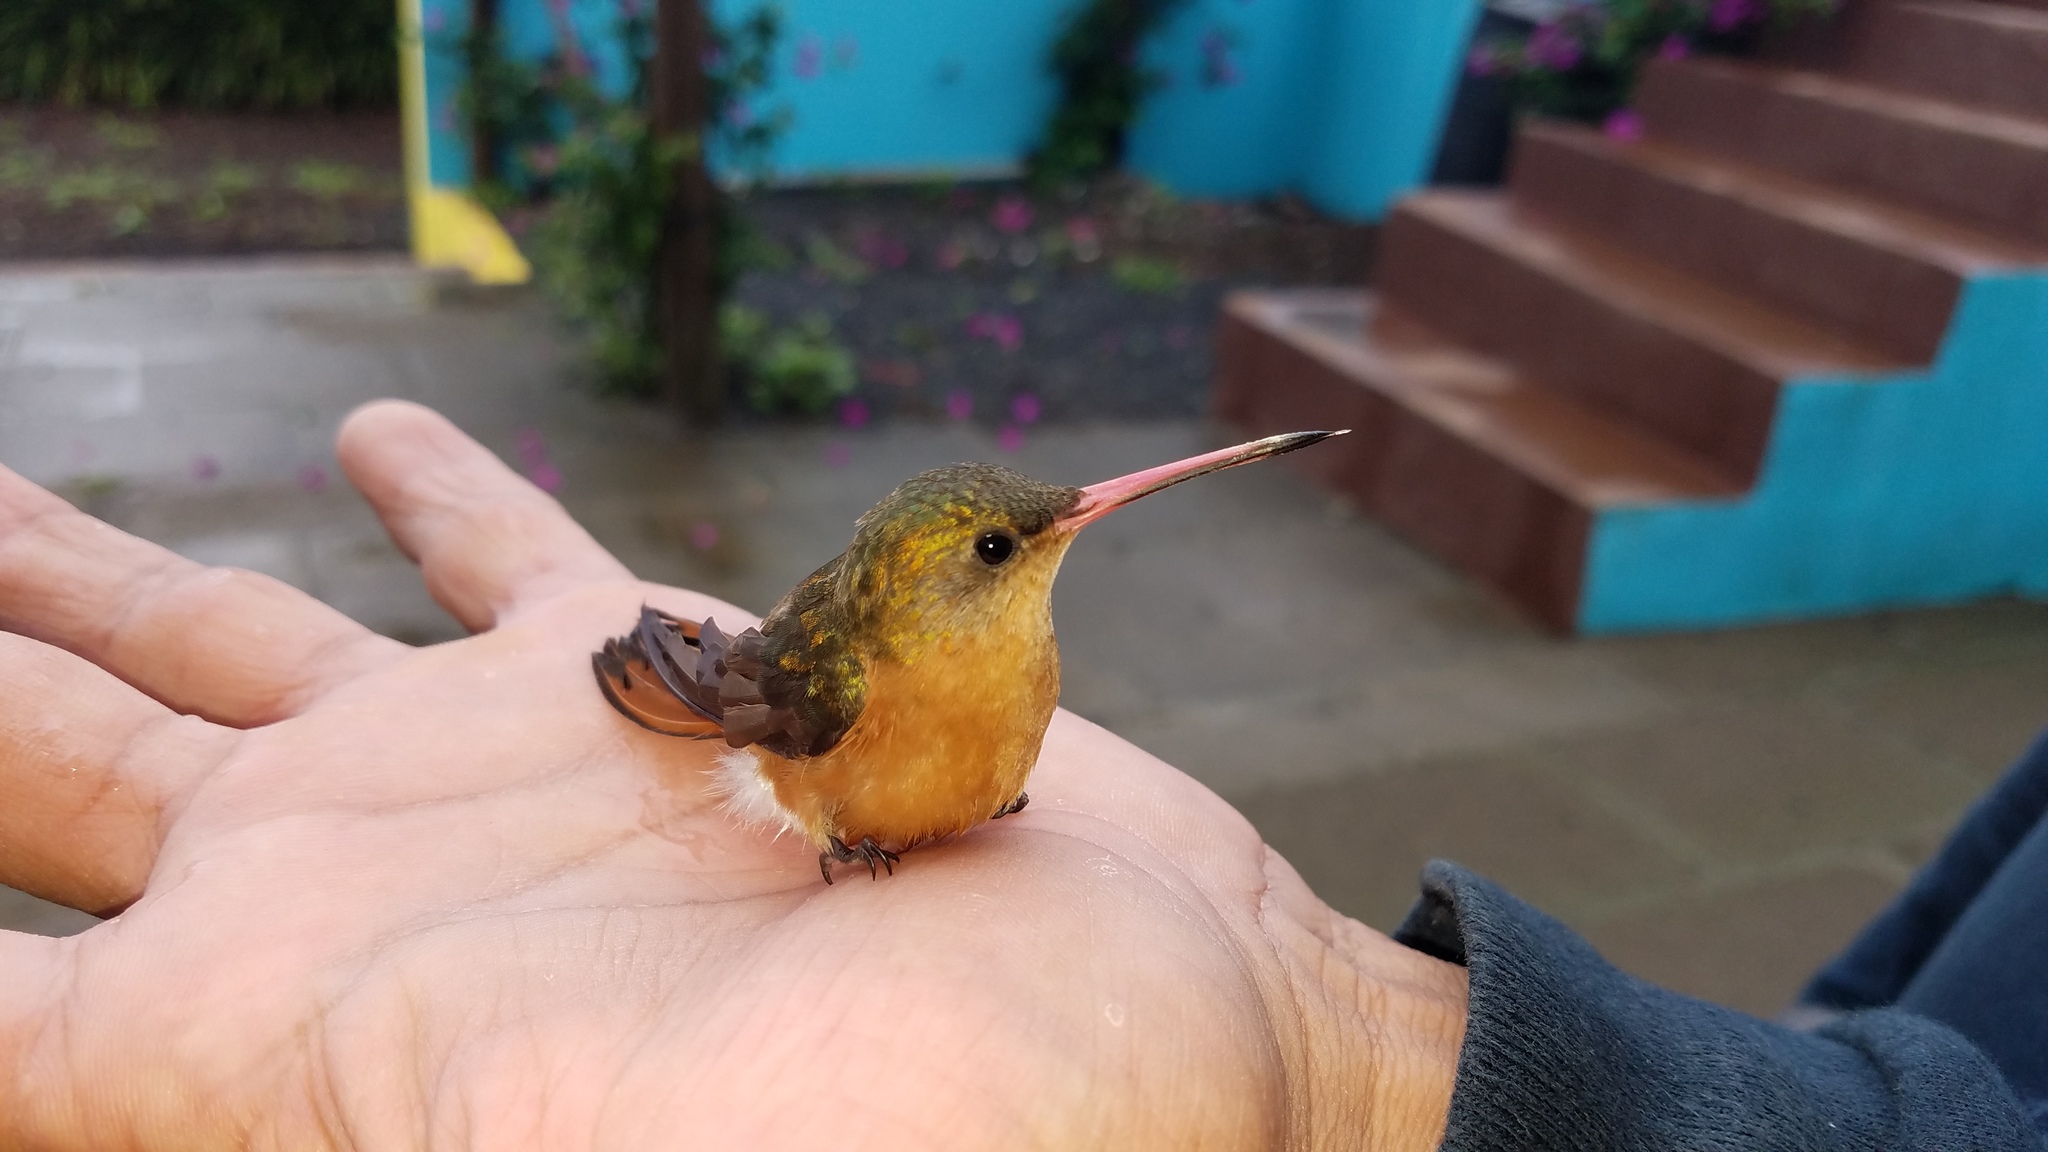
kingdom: Animalia
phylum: Chordata
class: Aves
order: Apodiformes
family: Trochilidae
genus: Amazilia
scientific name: Amazilia rutila
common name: Cinnamon hummingbird
